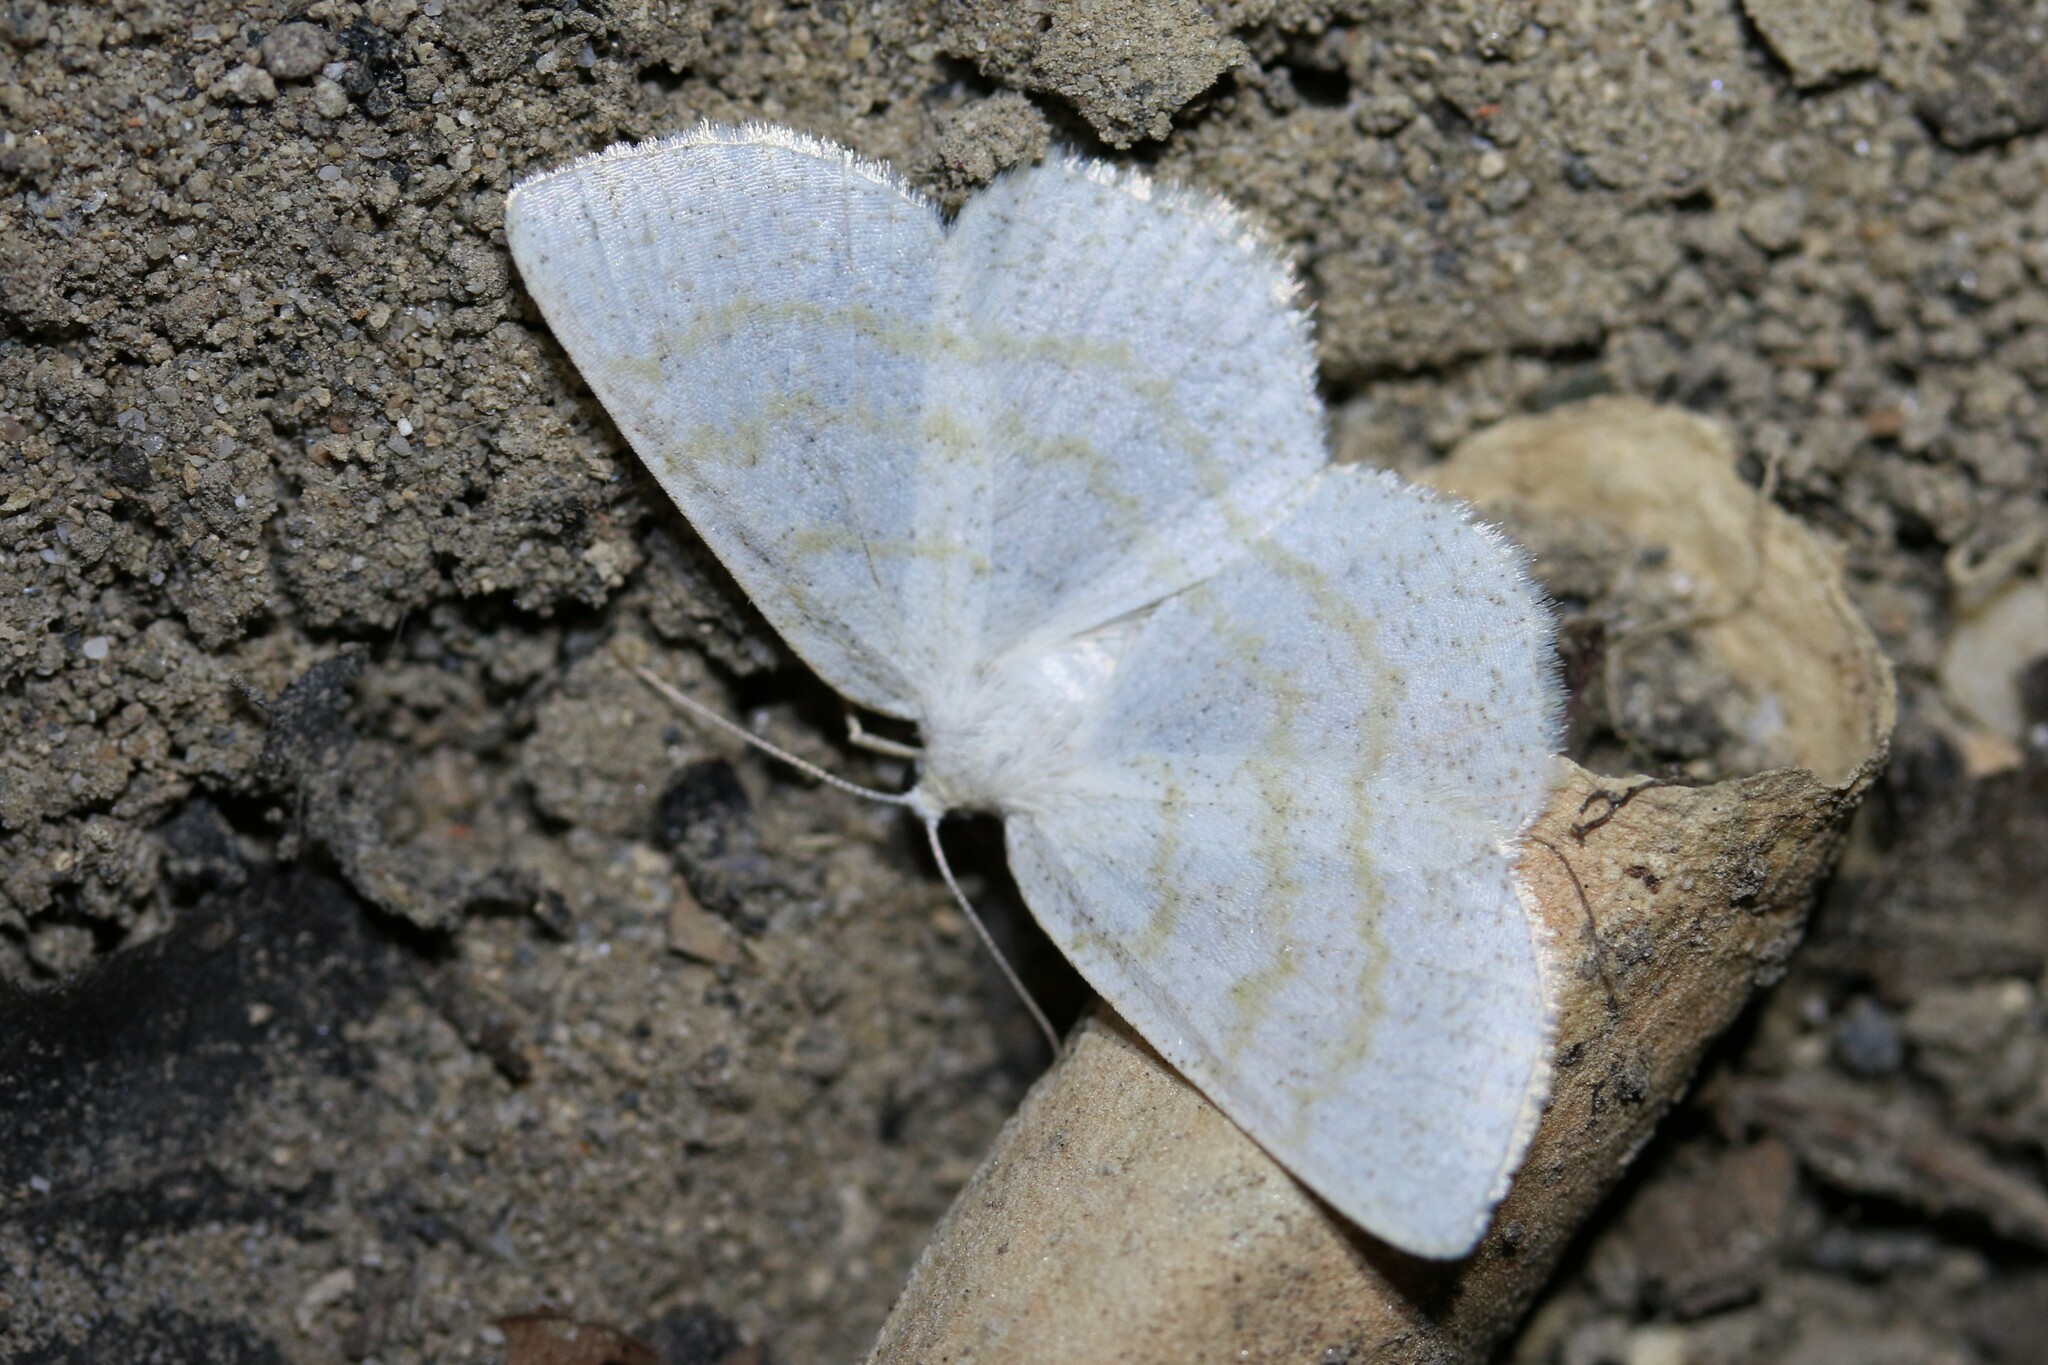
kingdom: Animalia
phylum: Arthropoda
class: Insecta
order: Lepidoptera
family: Geometridae
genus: Cabera
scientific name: Cabera exanthemata
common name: Common wave
